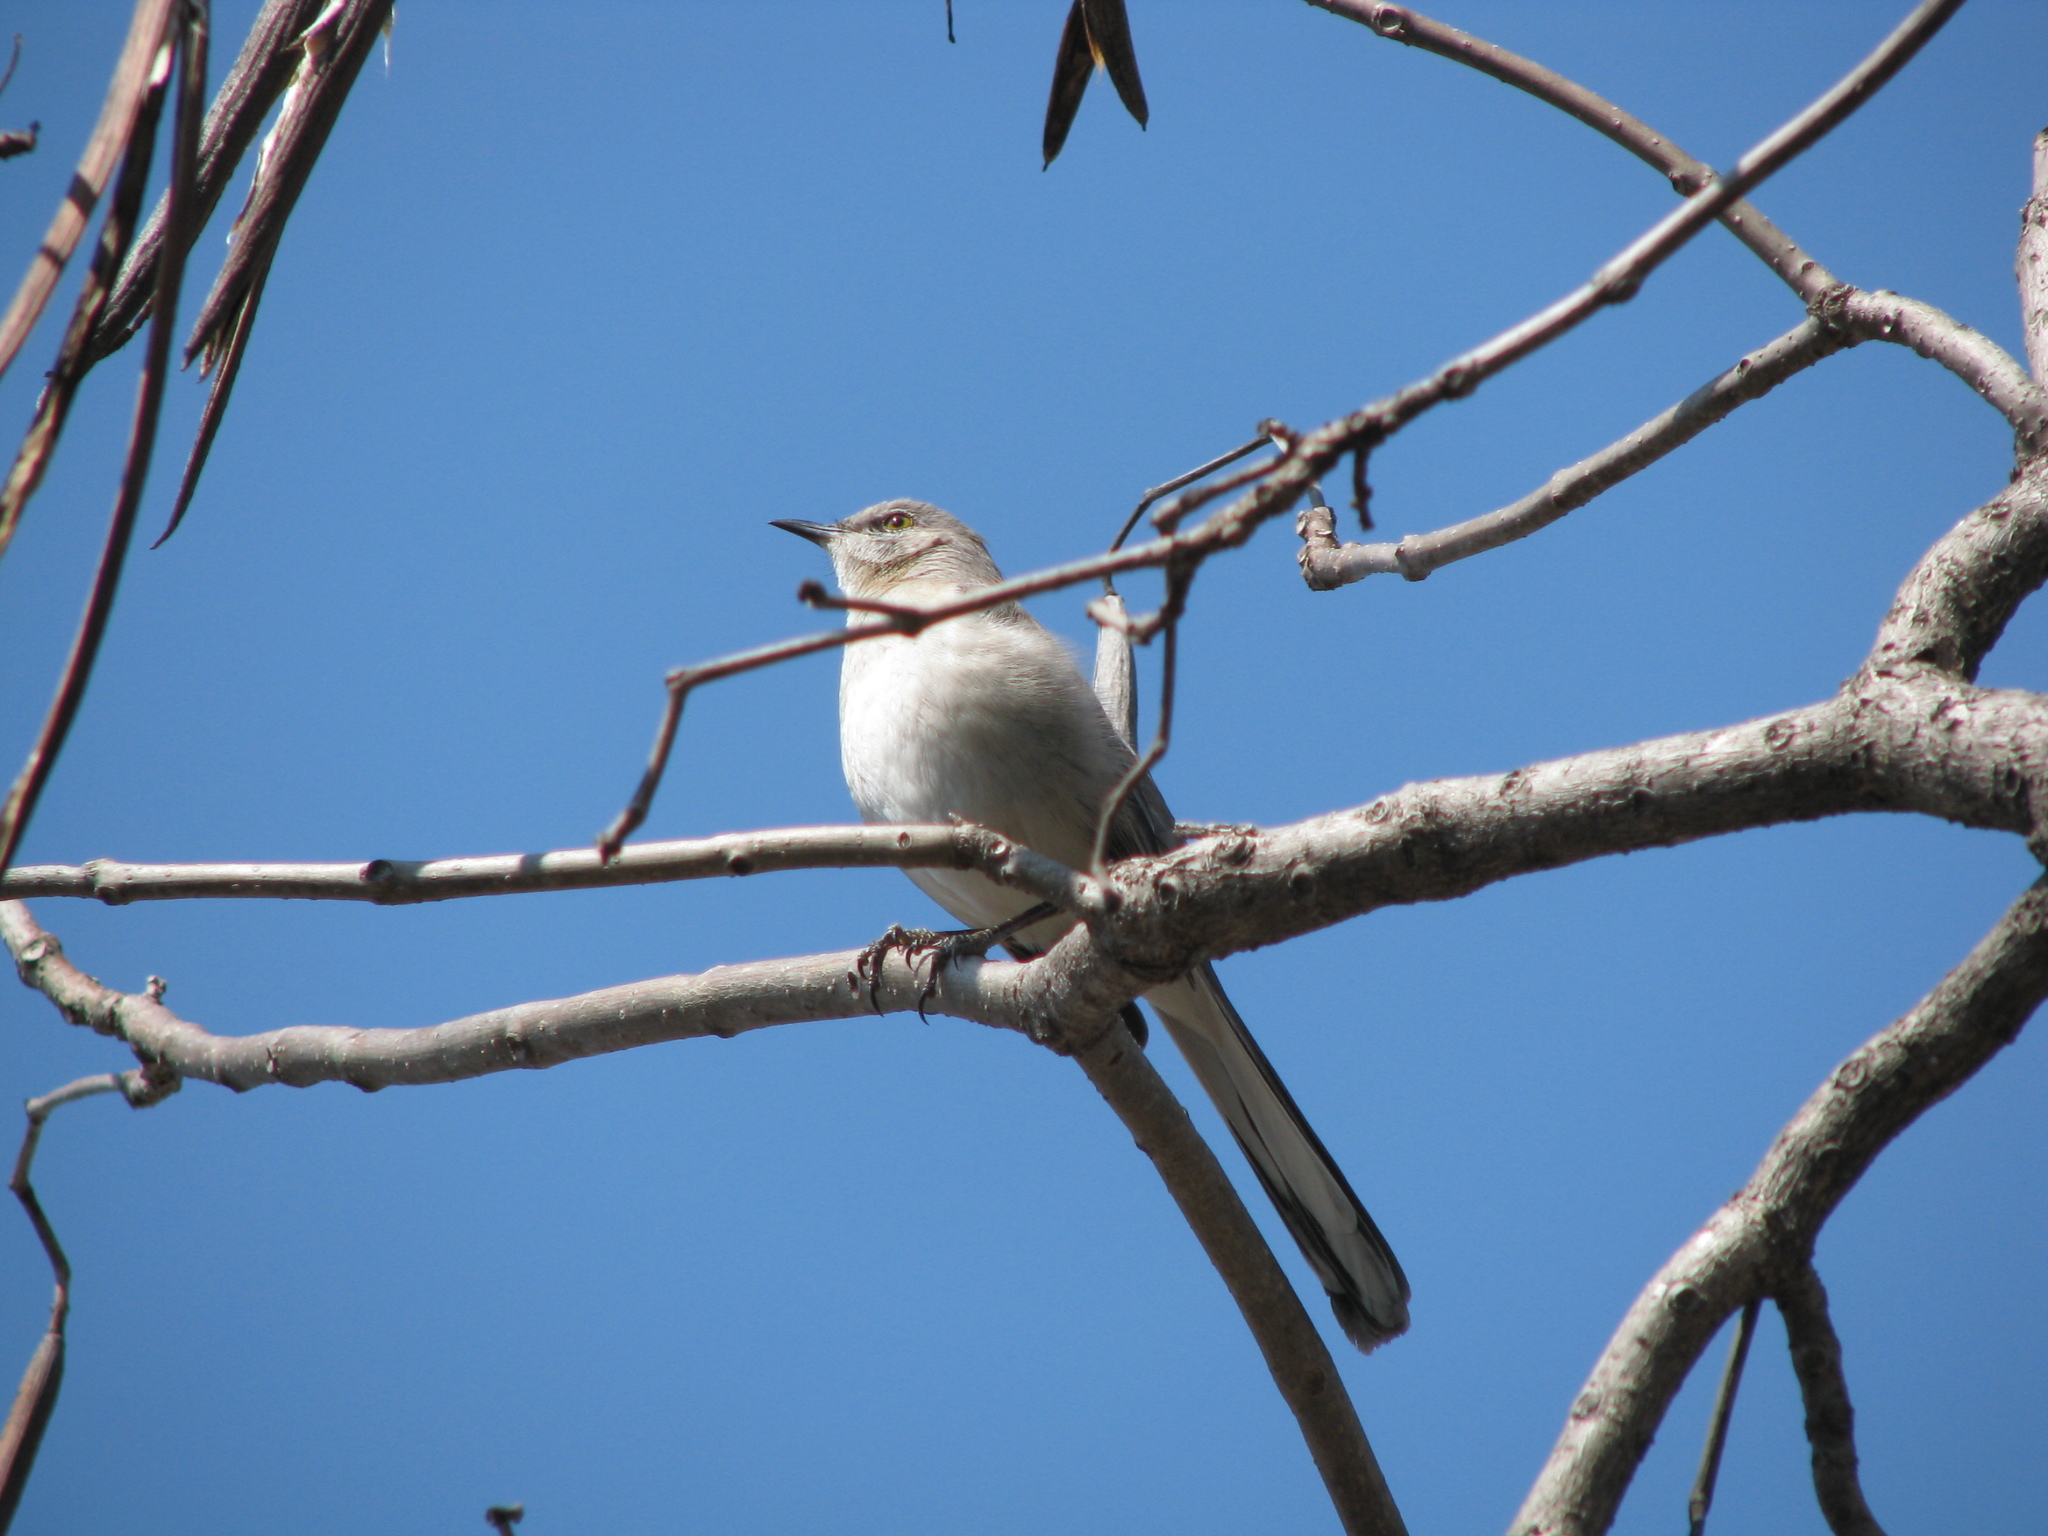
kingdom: Animalia
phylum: Chordata
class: Aves
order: Passeriformes
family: Mimidae
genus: Mimus
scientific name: Mimus polyglottos
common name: Northern mockingbird
